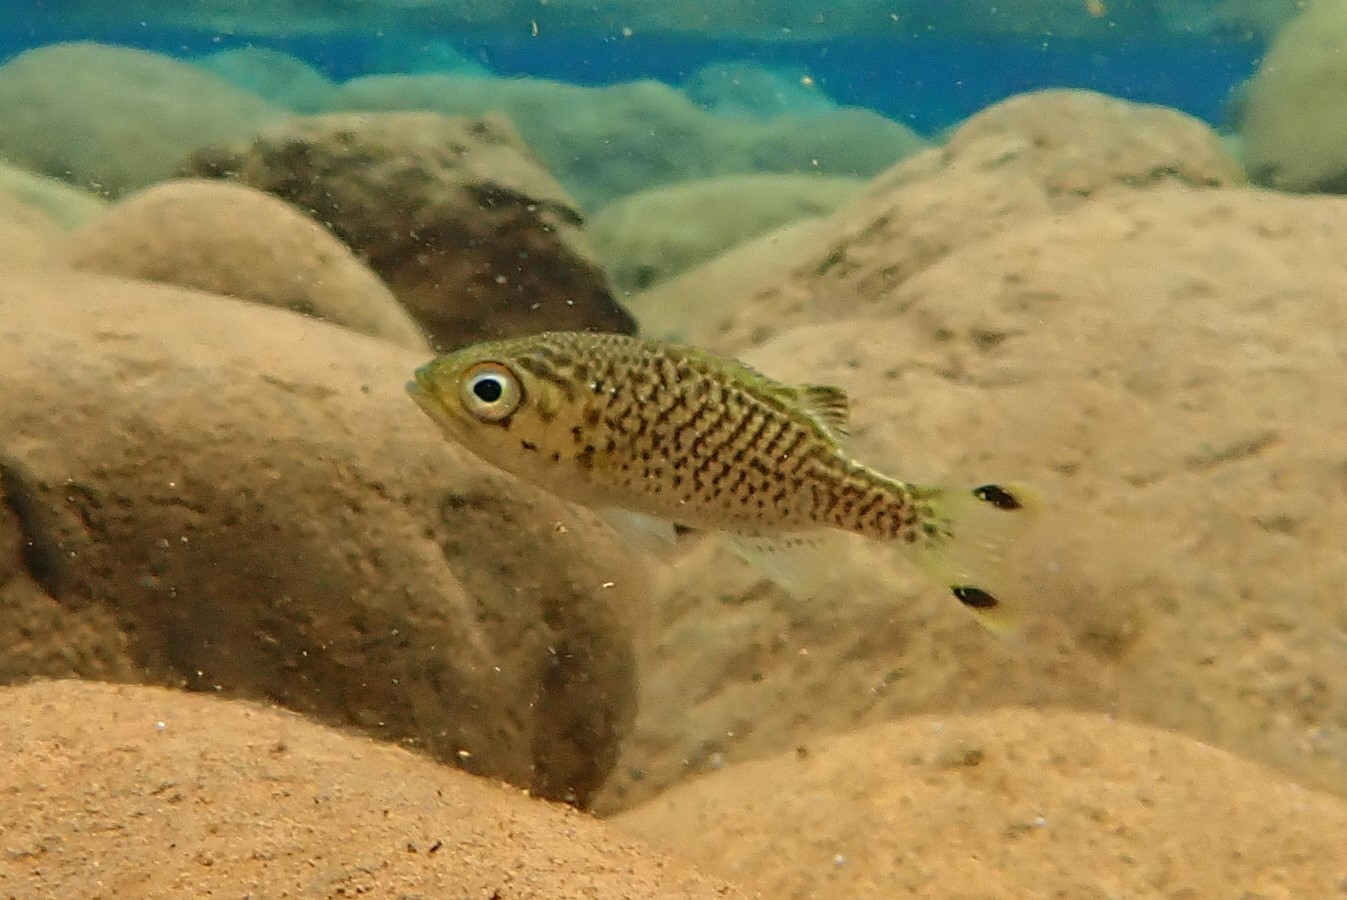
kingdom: Animalia
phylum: Chordata
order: Perciformes
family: Kuhliidae
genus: Kuhlia
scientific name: Kuhlia rupestris
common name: Rock flagtail
